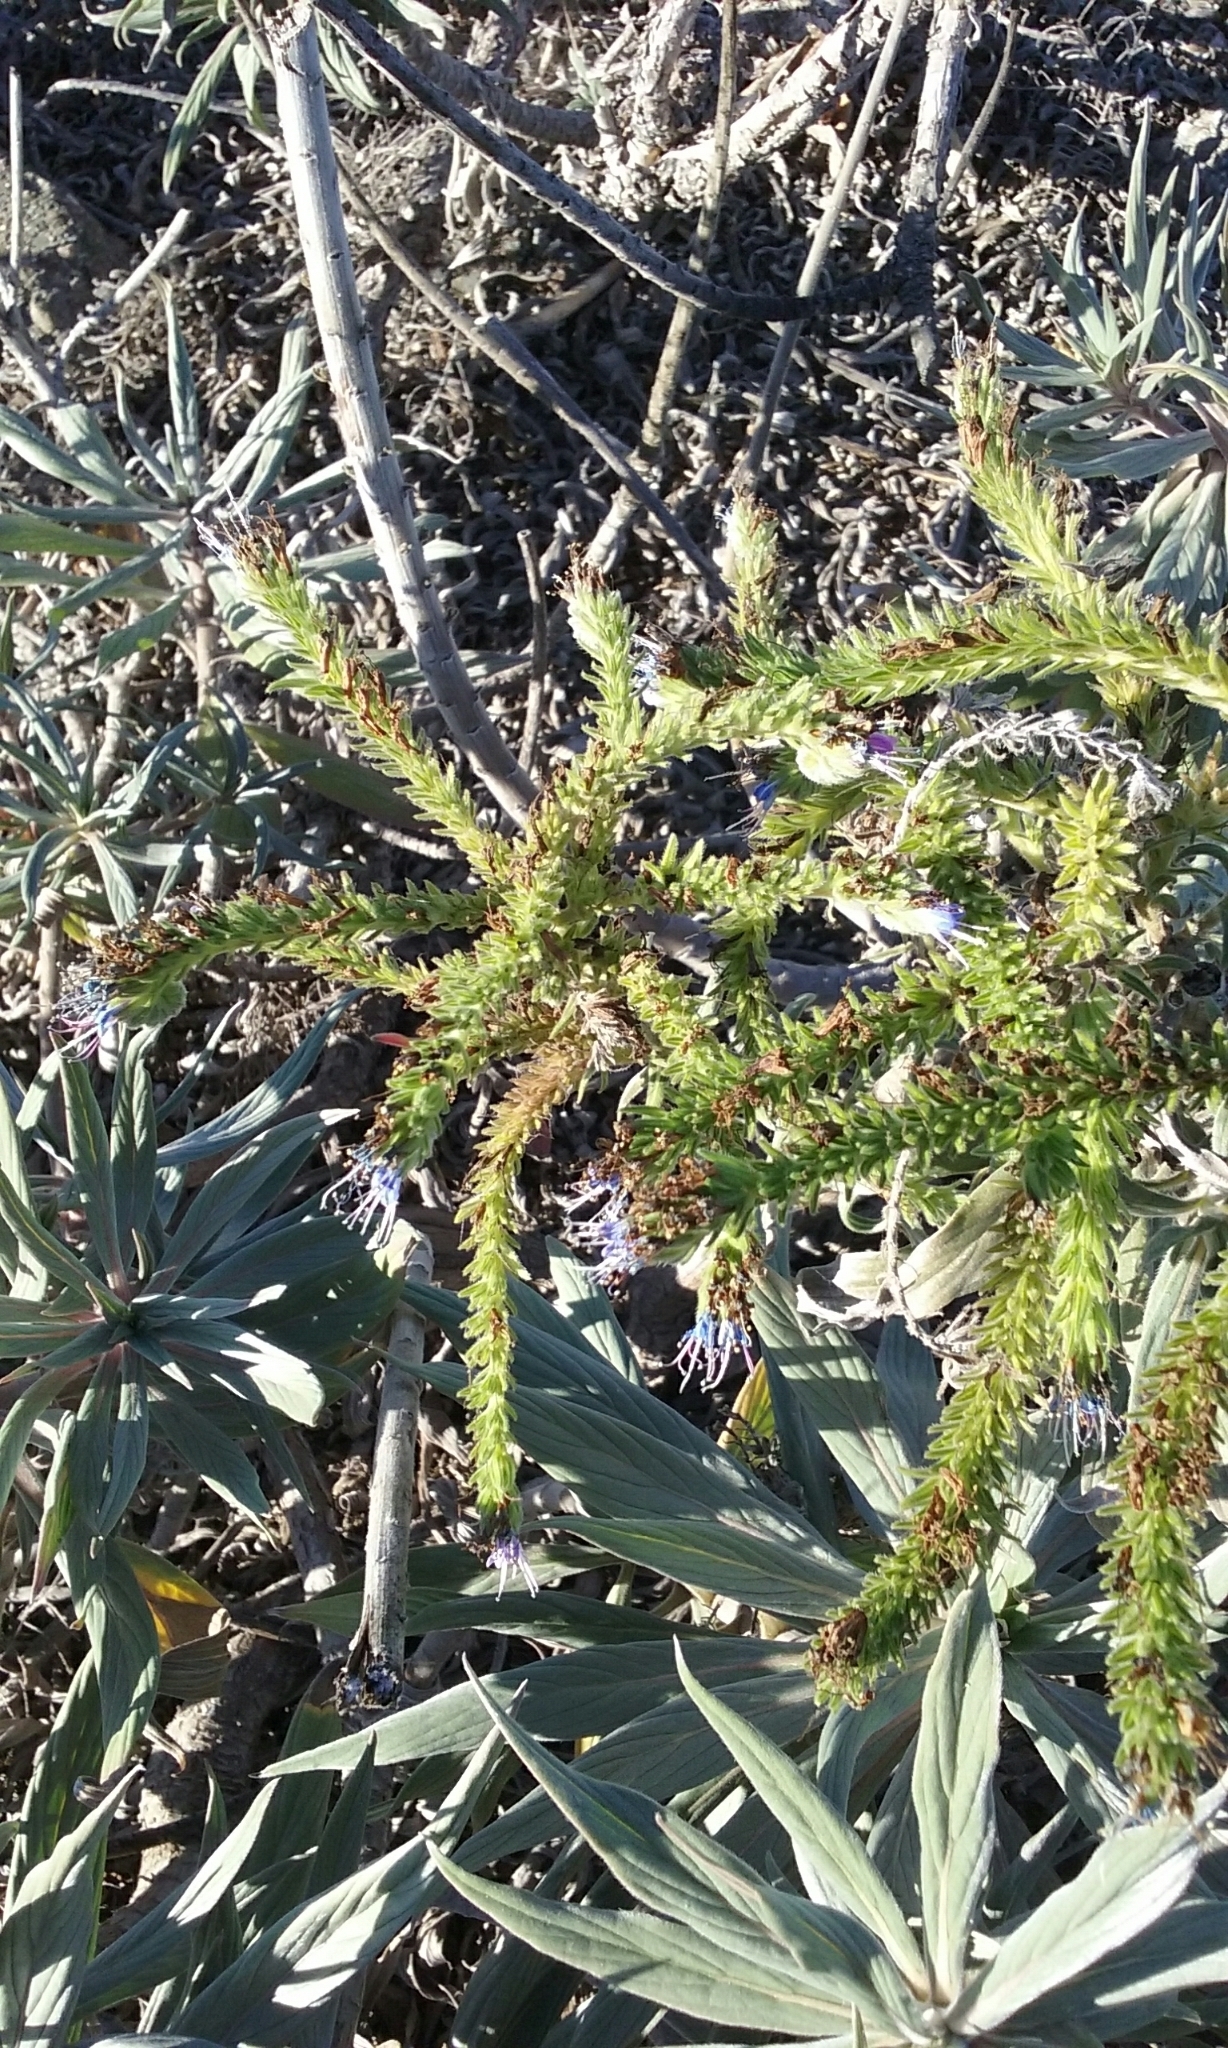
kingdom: Plantae
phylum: Tracheophyta
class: Magnoliopsida
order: Boraginales
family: Boraginaceae
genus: Echium
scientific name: Echium candicans
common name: Pride of madeira
